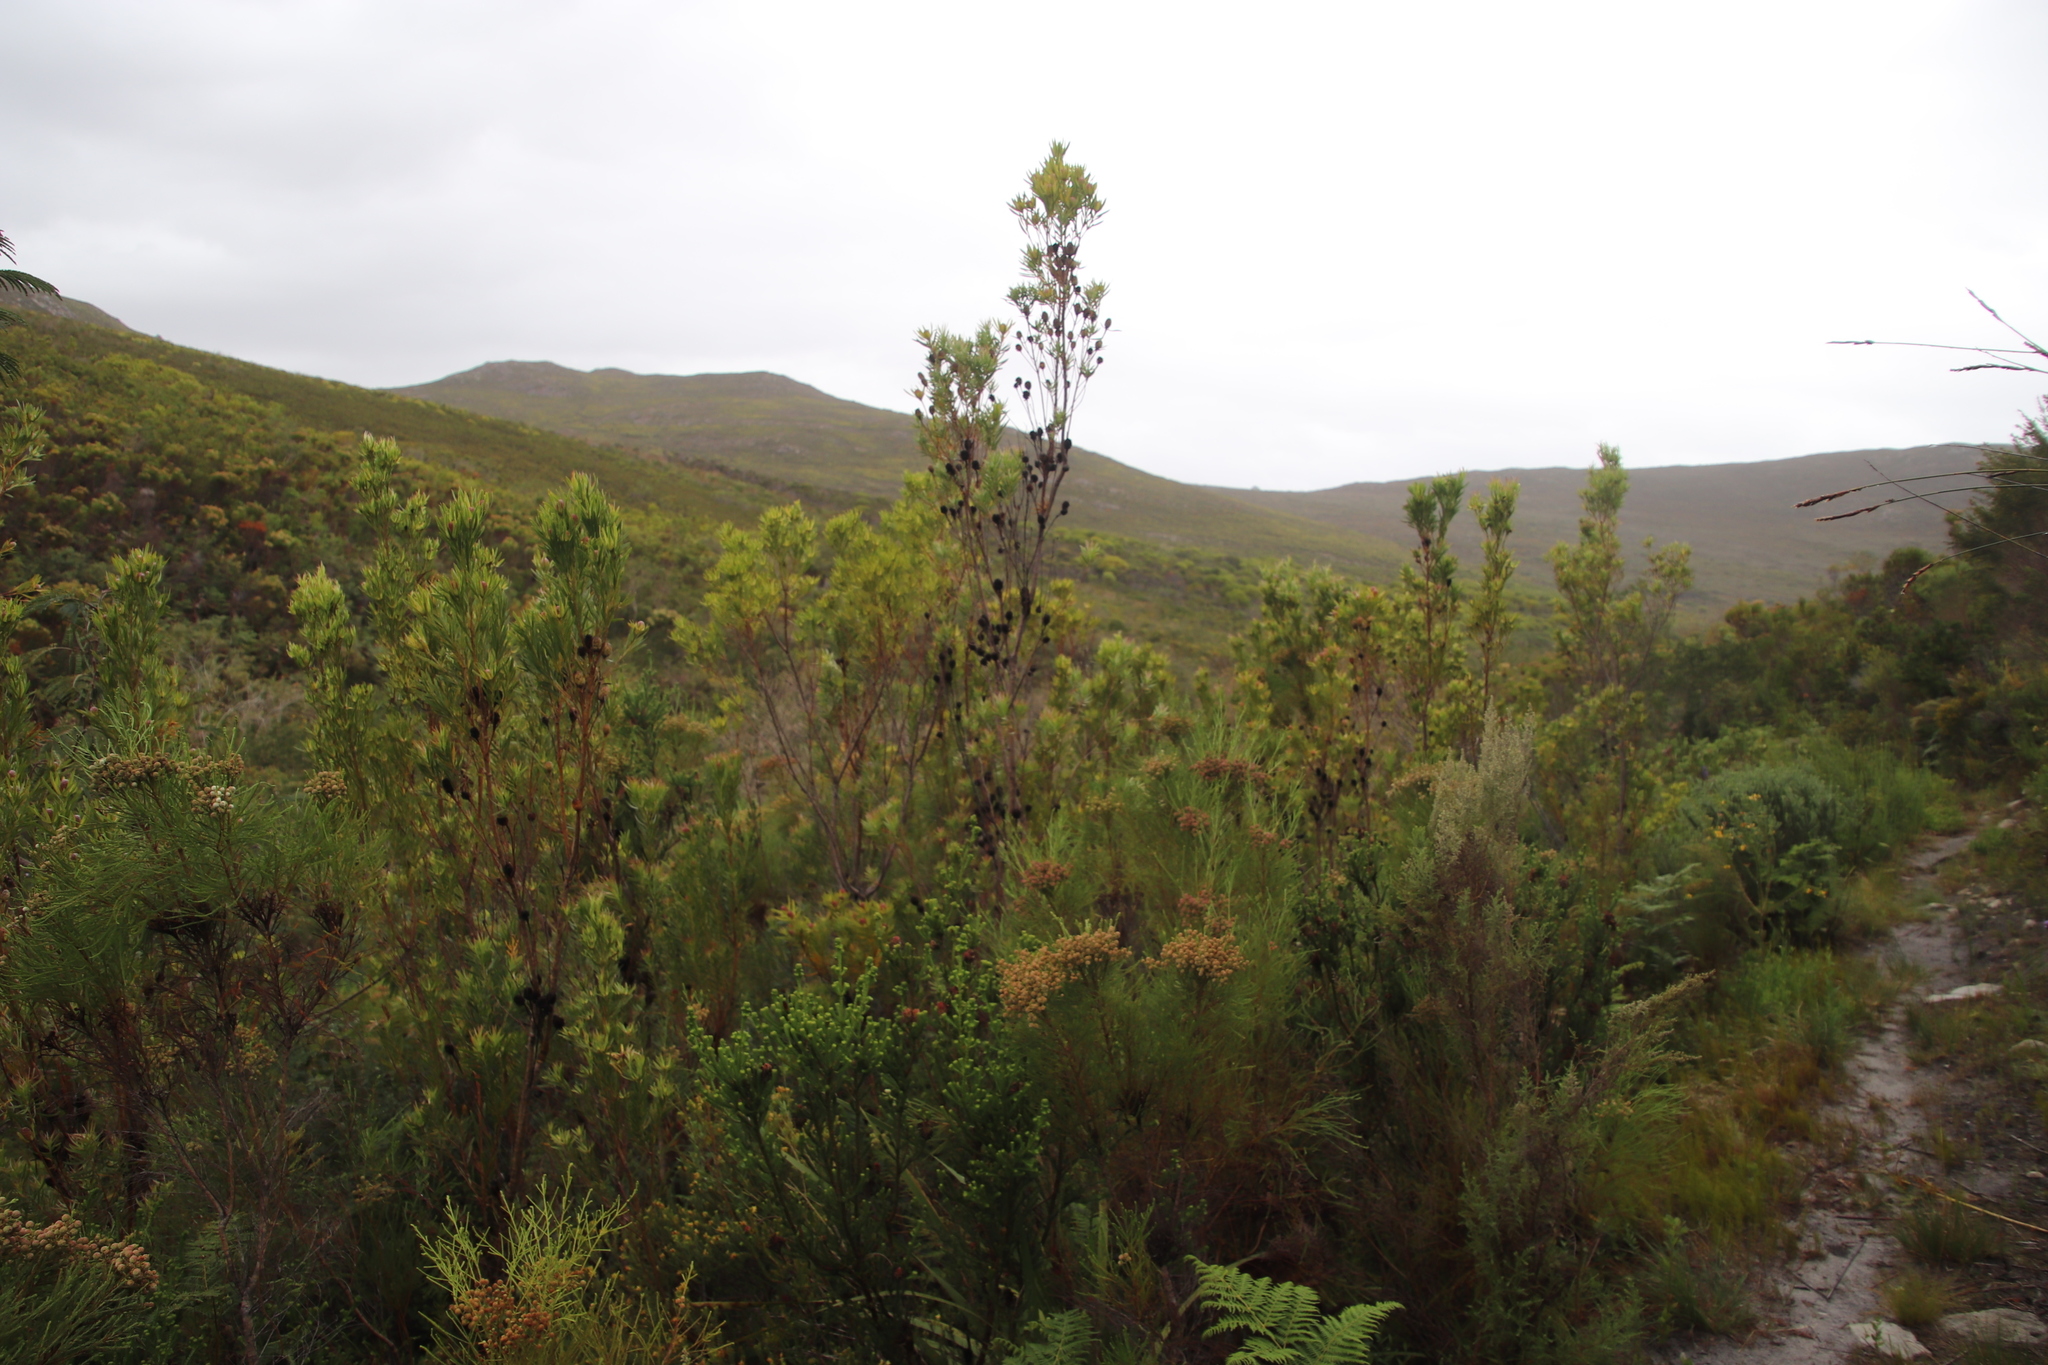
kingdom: Plantae
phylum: Tracheophyta
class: Magnoliopsida
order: Proteales
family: Proteaceae
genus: Leucadendron
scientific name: Leucadendron xanthoconus
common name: Sickle-leaf conebush
